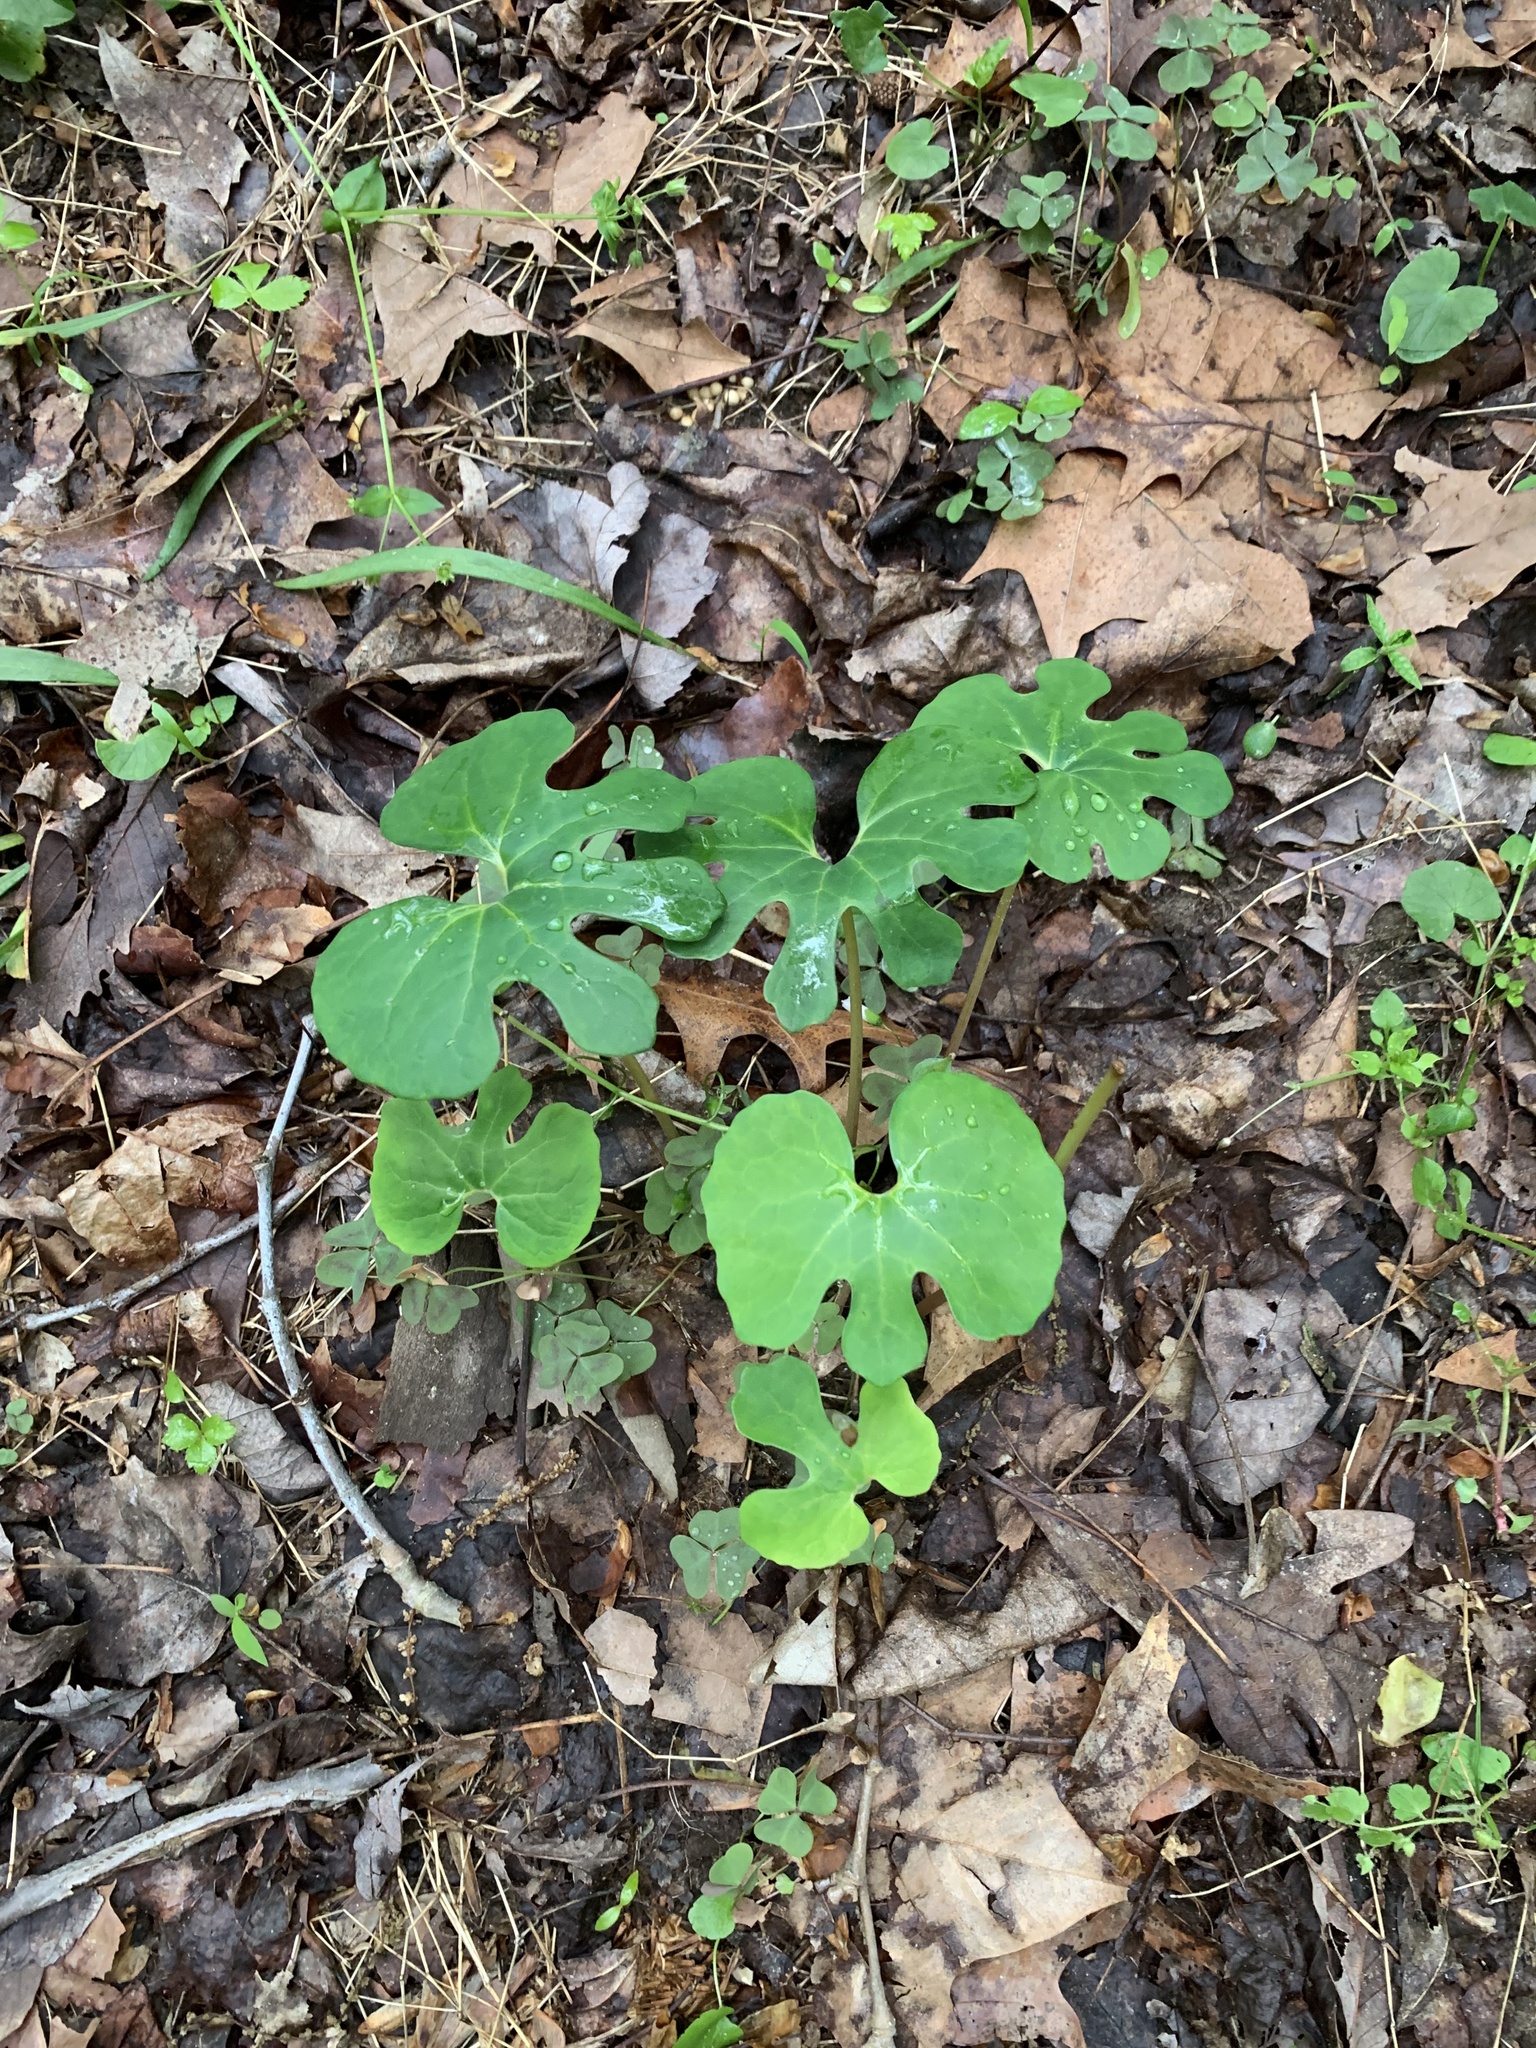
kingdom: Plantae
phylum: Tracheophyta
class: Magnoliopsida
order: Ranunculales
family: Papaveraceae
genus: Sanguinaria
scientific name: Sanguinaria canadensis
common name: Bloodroot
